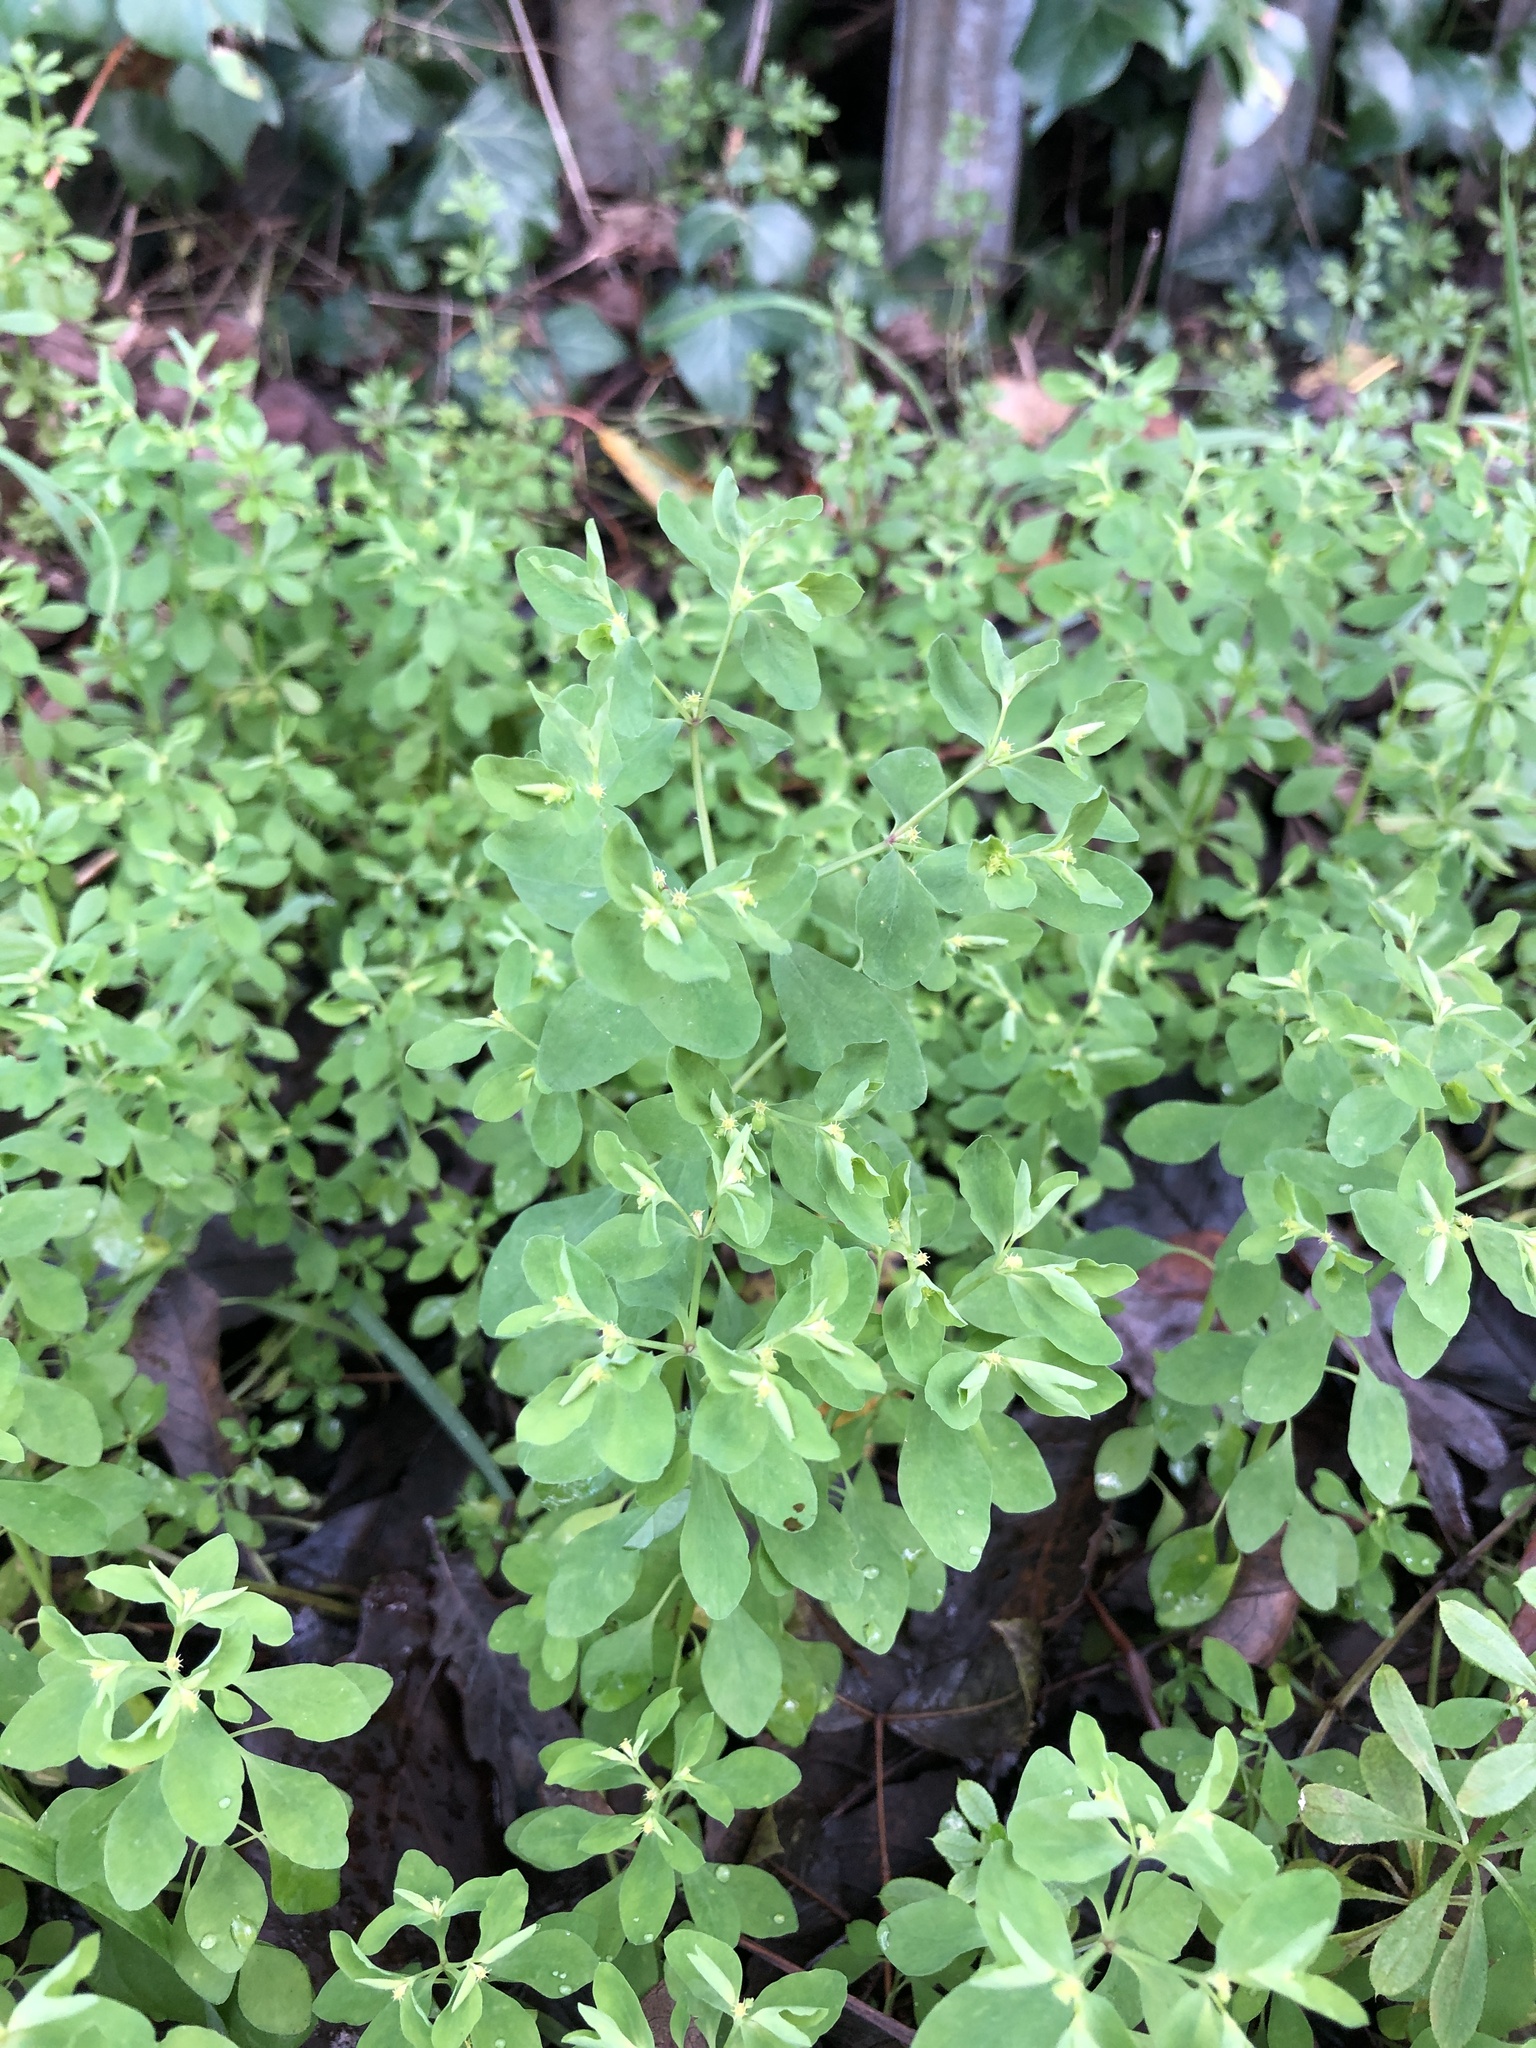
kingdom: Plantae
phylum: Tracheophyta
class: Magnoliopsida
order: Malpighiales
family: Euphorbiaceae
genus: Euphorbia
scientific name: Euphorbia peplus
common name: Petty spurge
